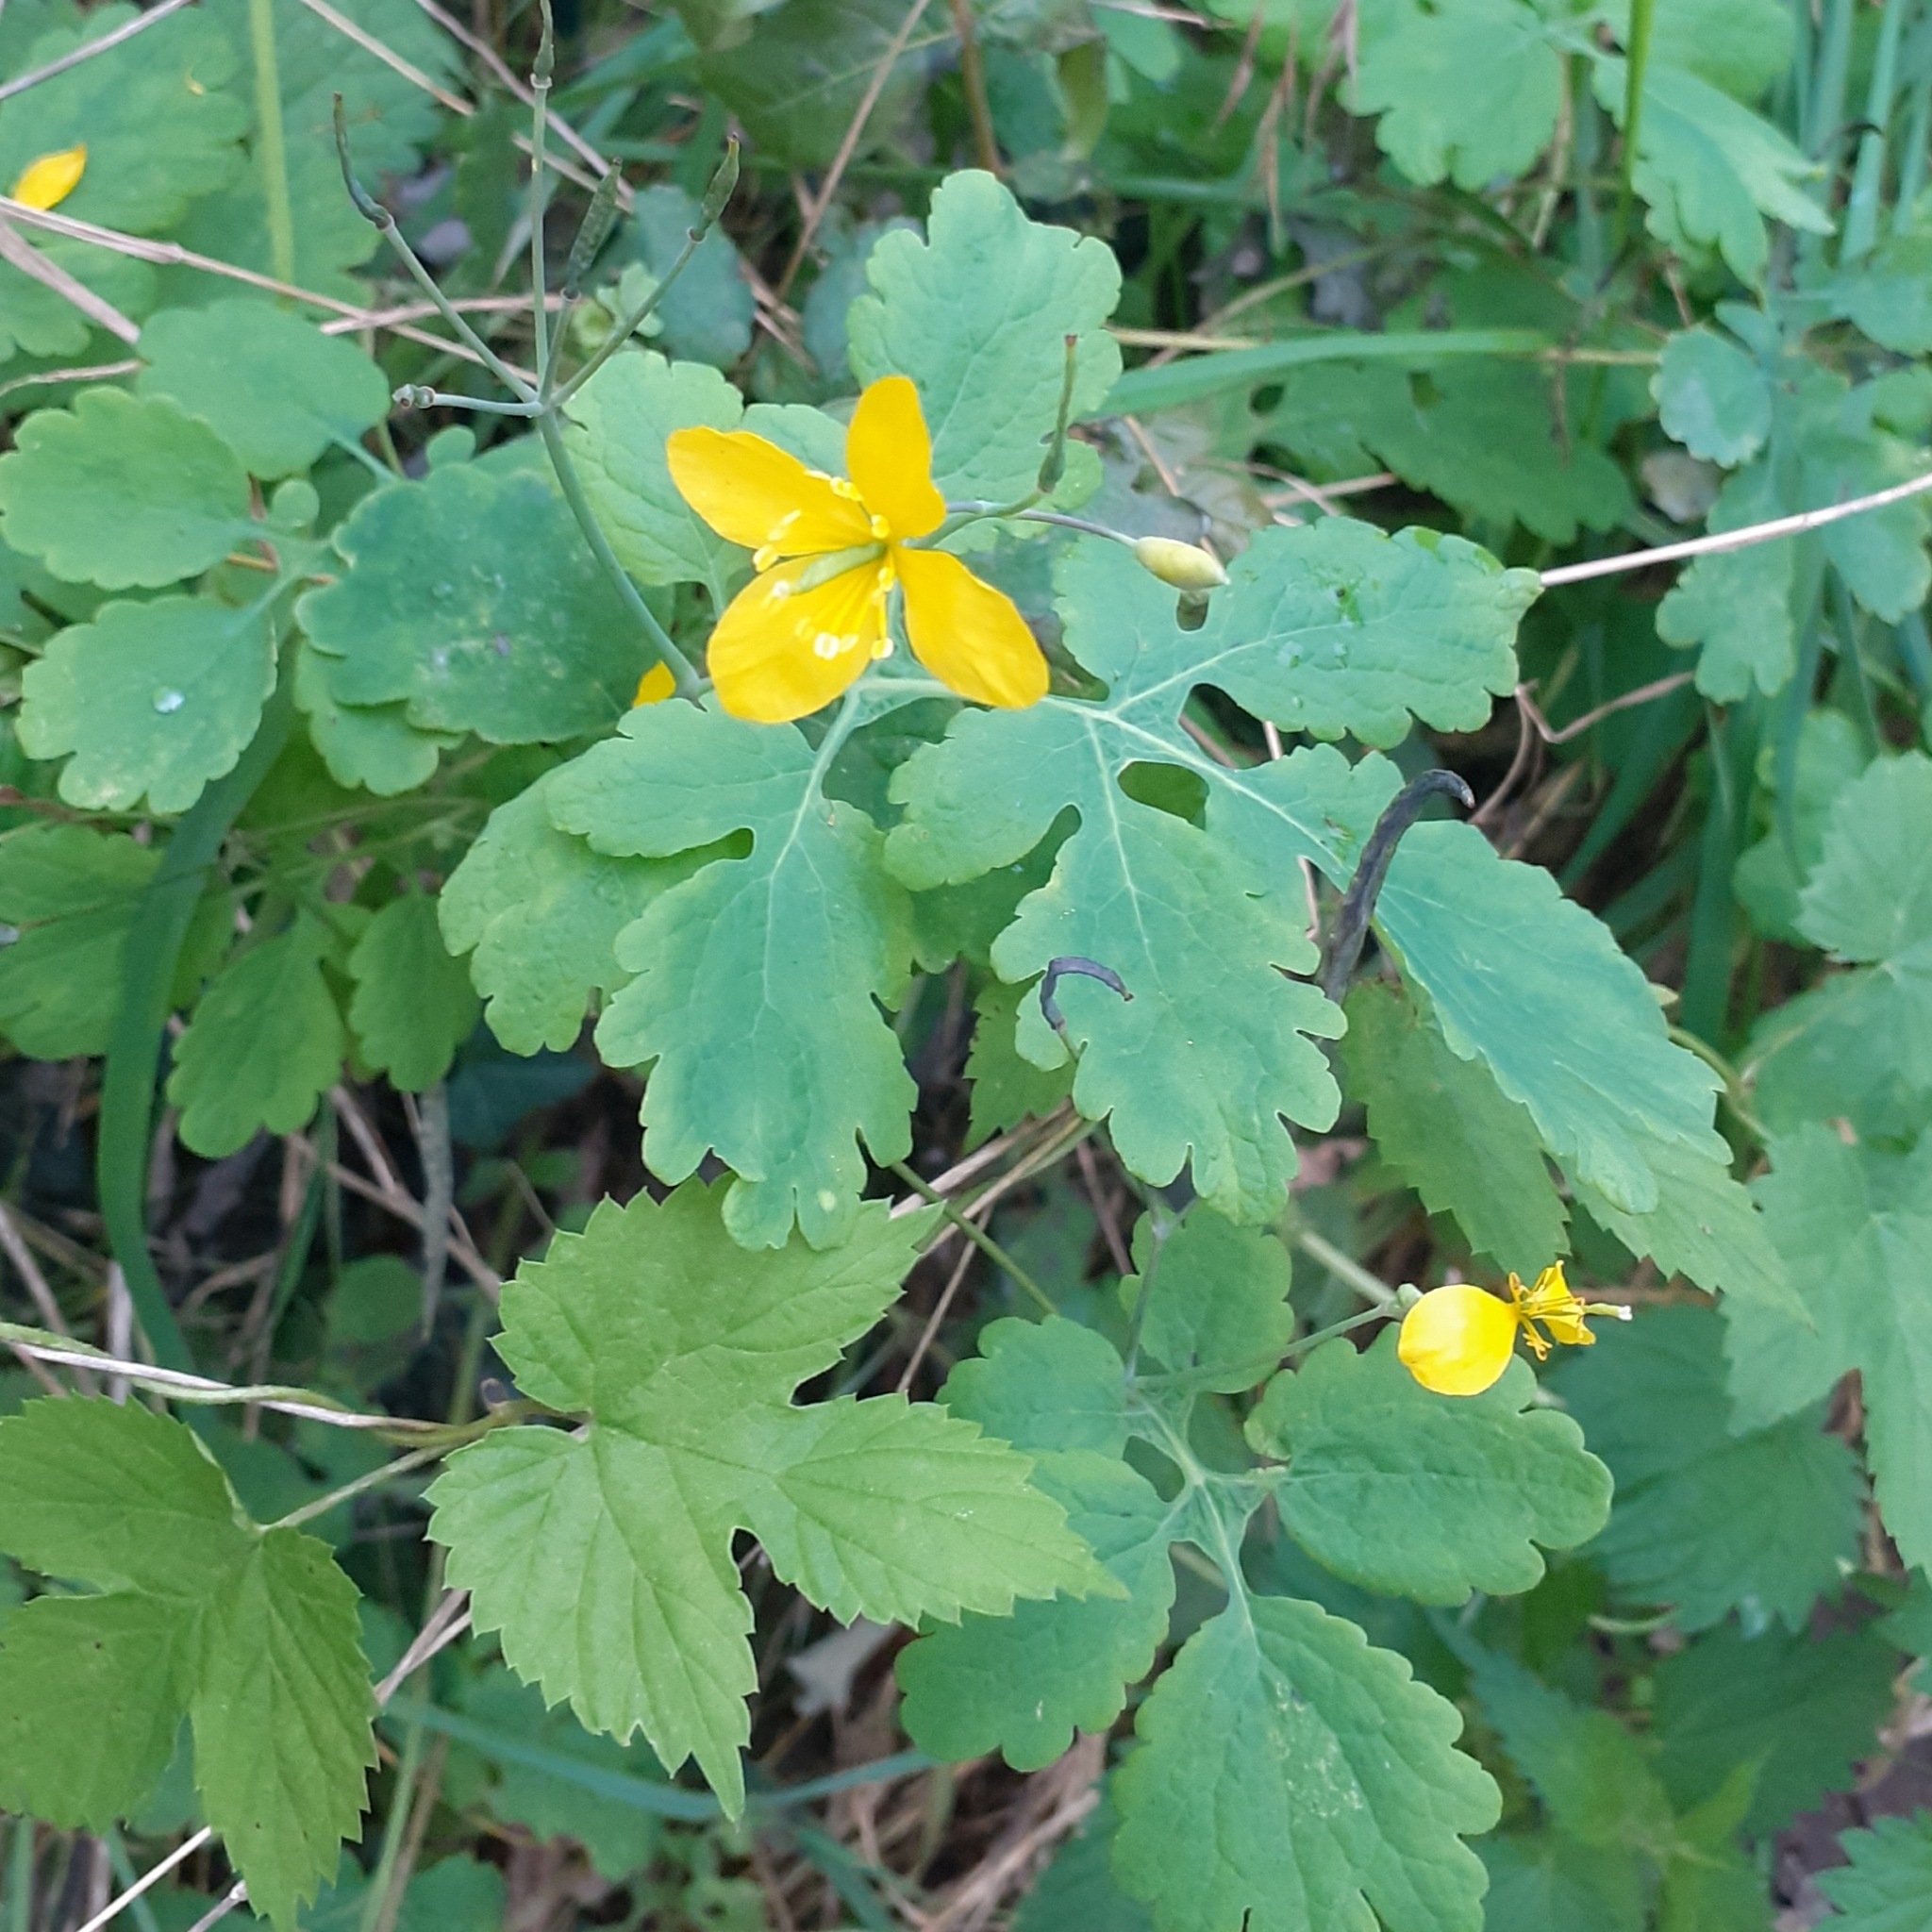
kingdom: Plantae
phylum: Tracheophyta
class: Magnoliopsida
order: Ranunculales
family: Papaveraceae
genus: Chelidonium
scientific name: Chelidonium majus
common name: Greater celandine
